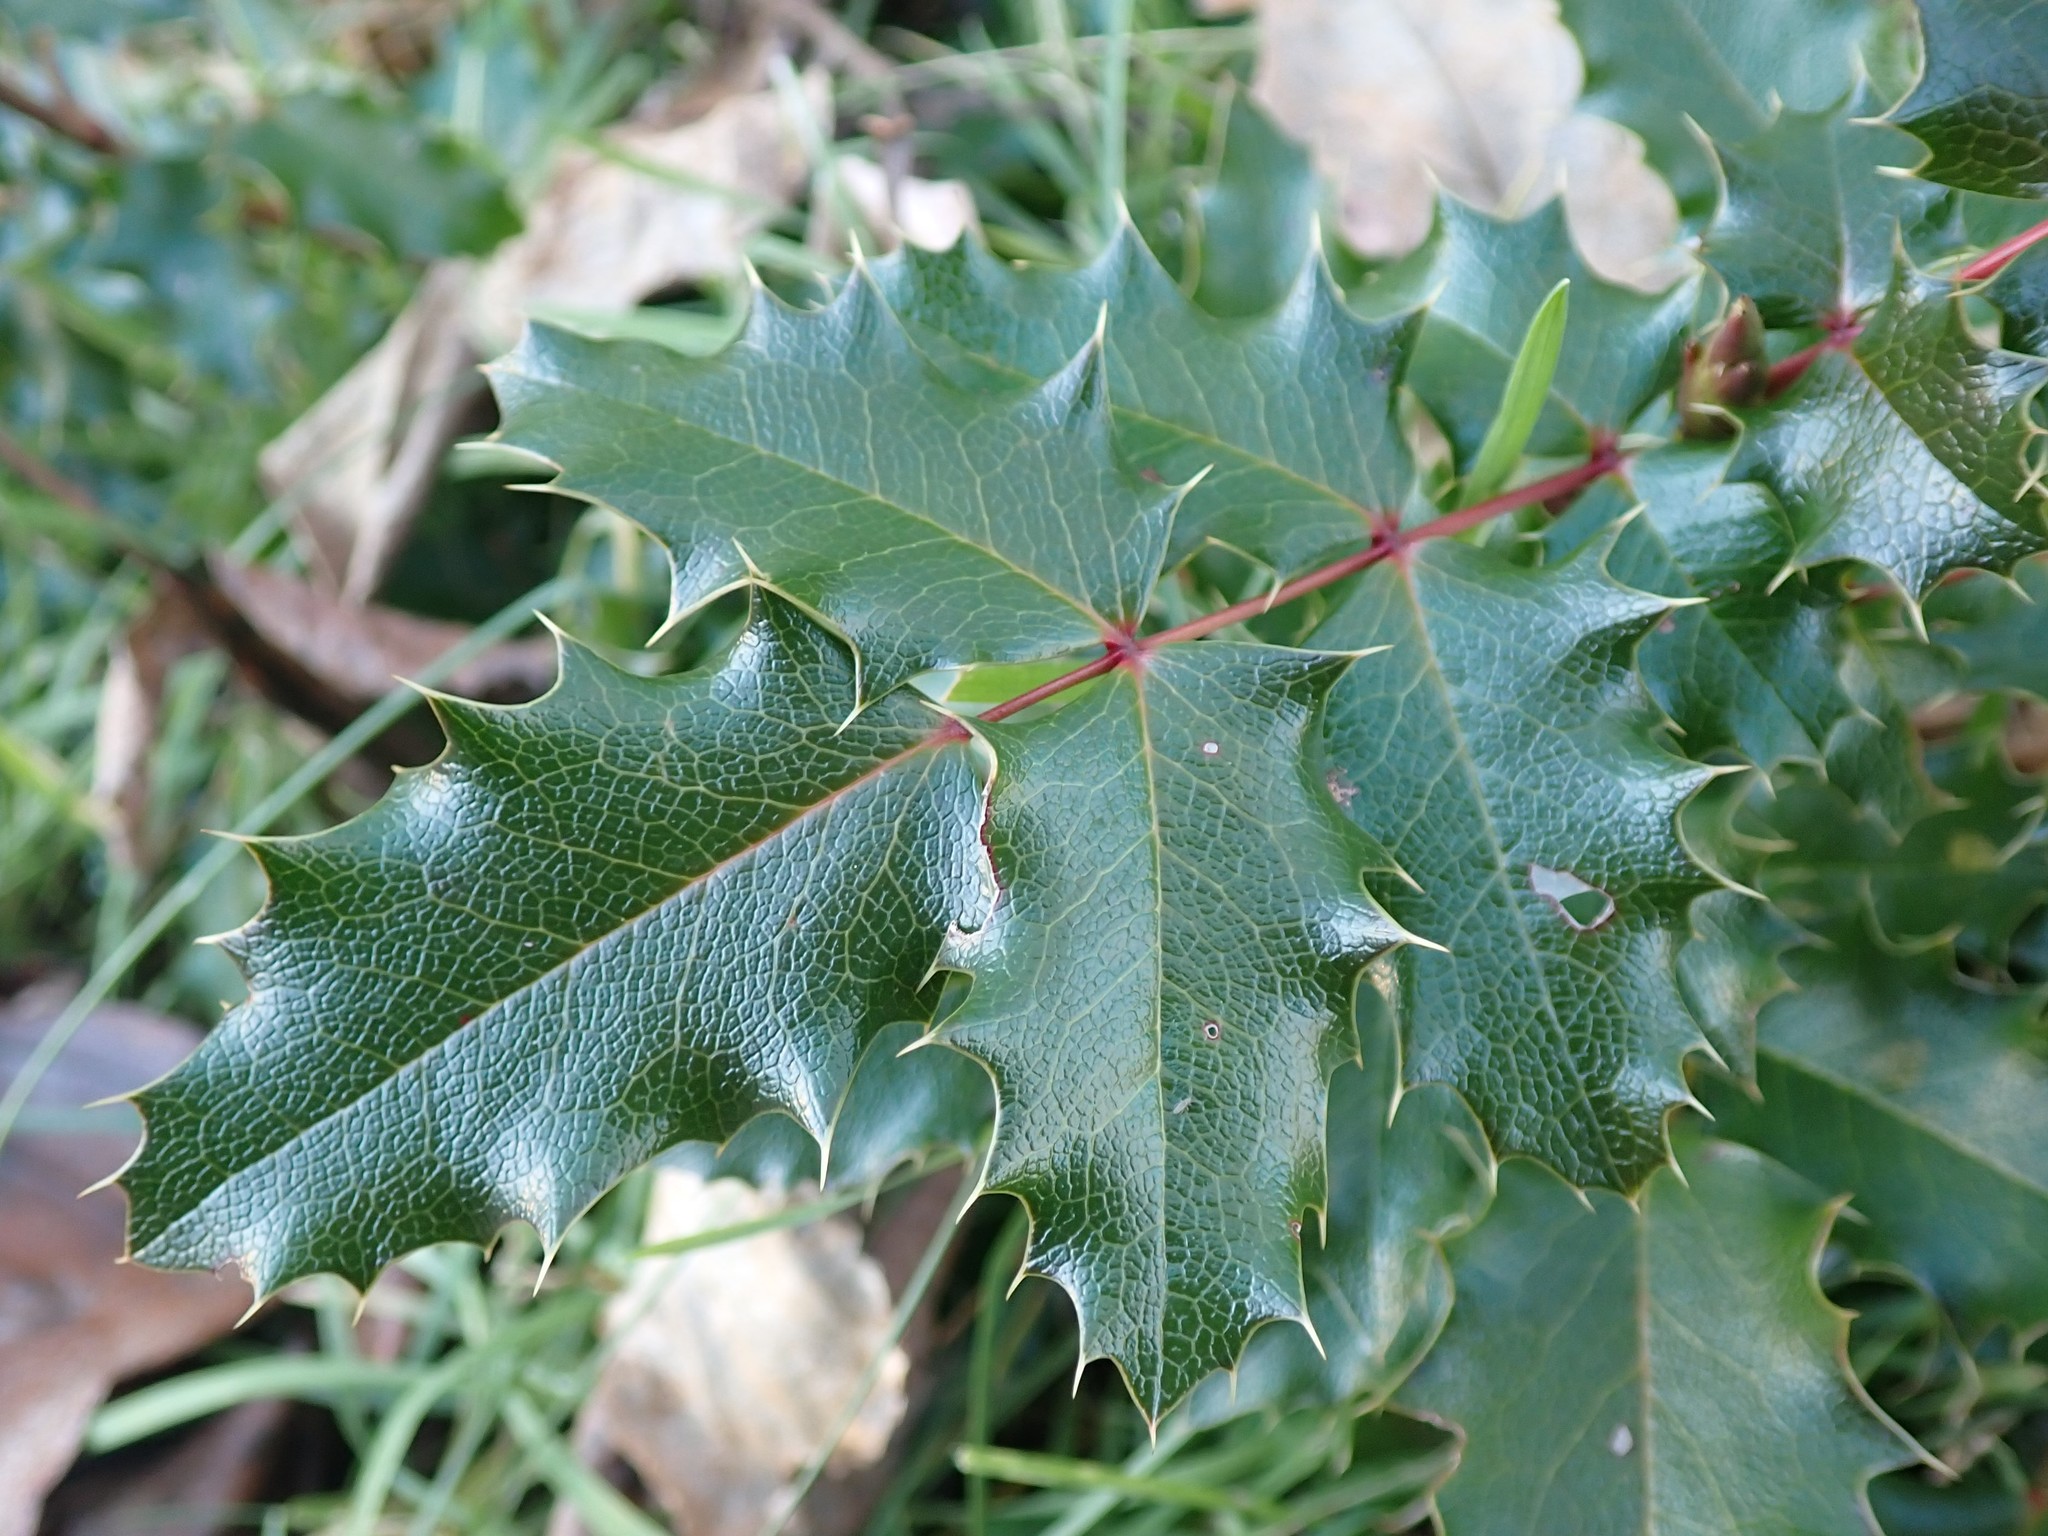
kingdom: Plantae
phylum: Tracheophyta
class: Magnoliopsida
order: Ranunculales
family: Berberidaceae
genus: Mahonia
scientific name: Mahonia aquifolium
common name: Oregon-grape
